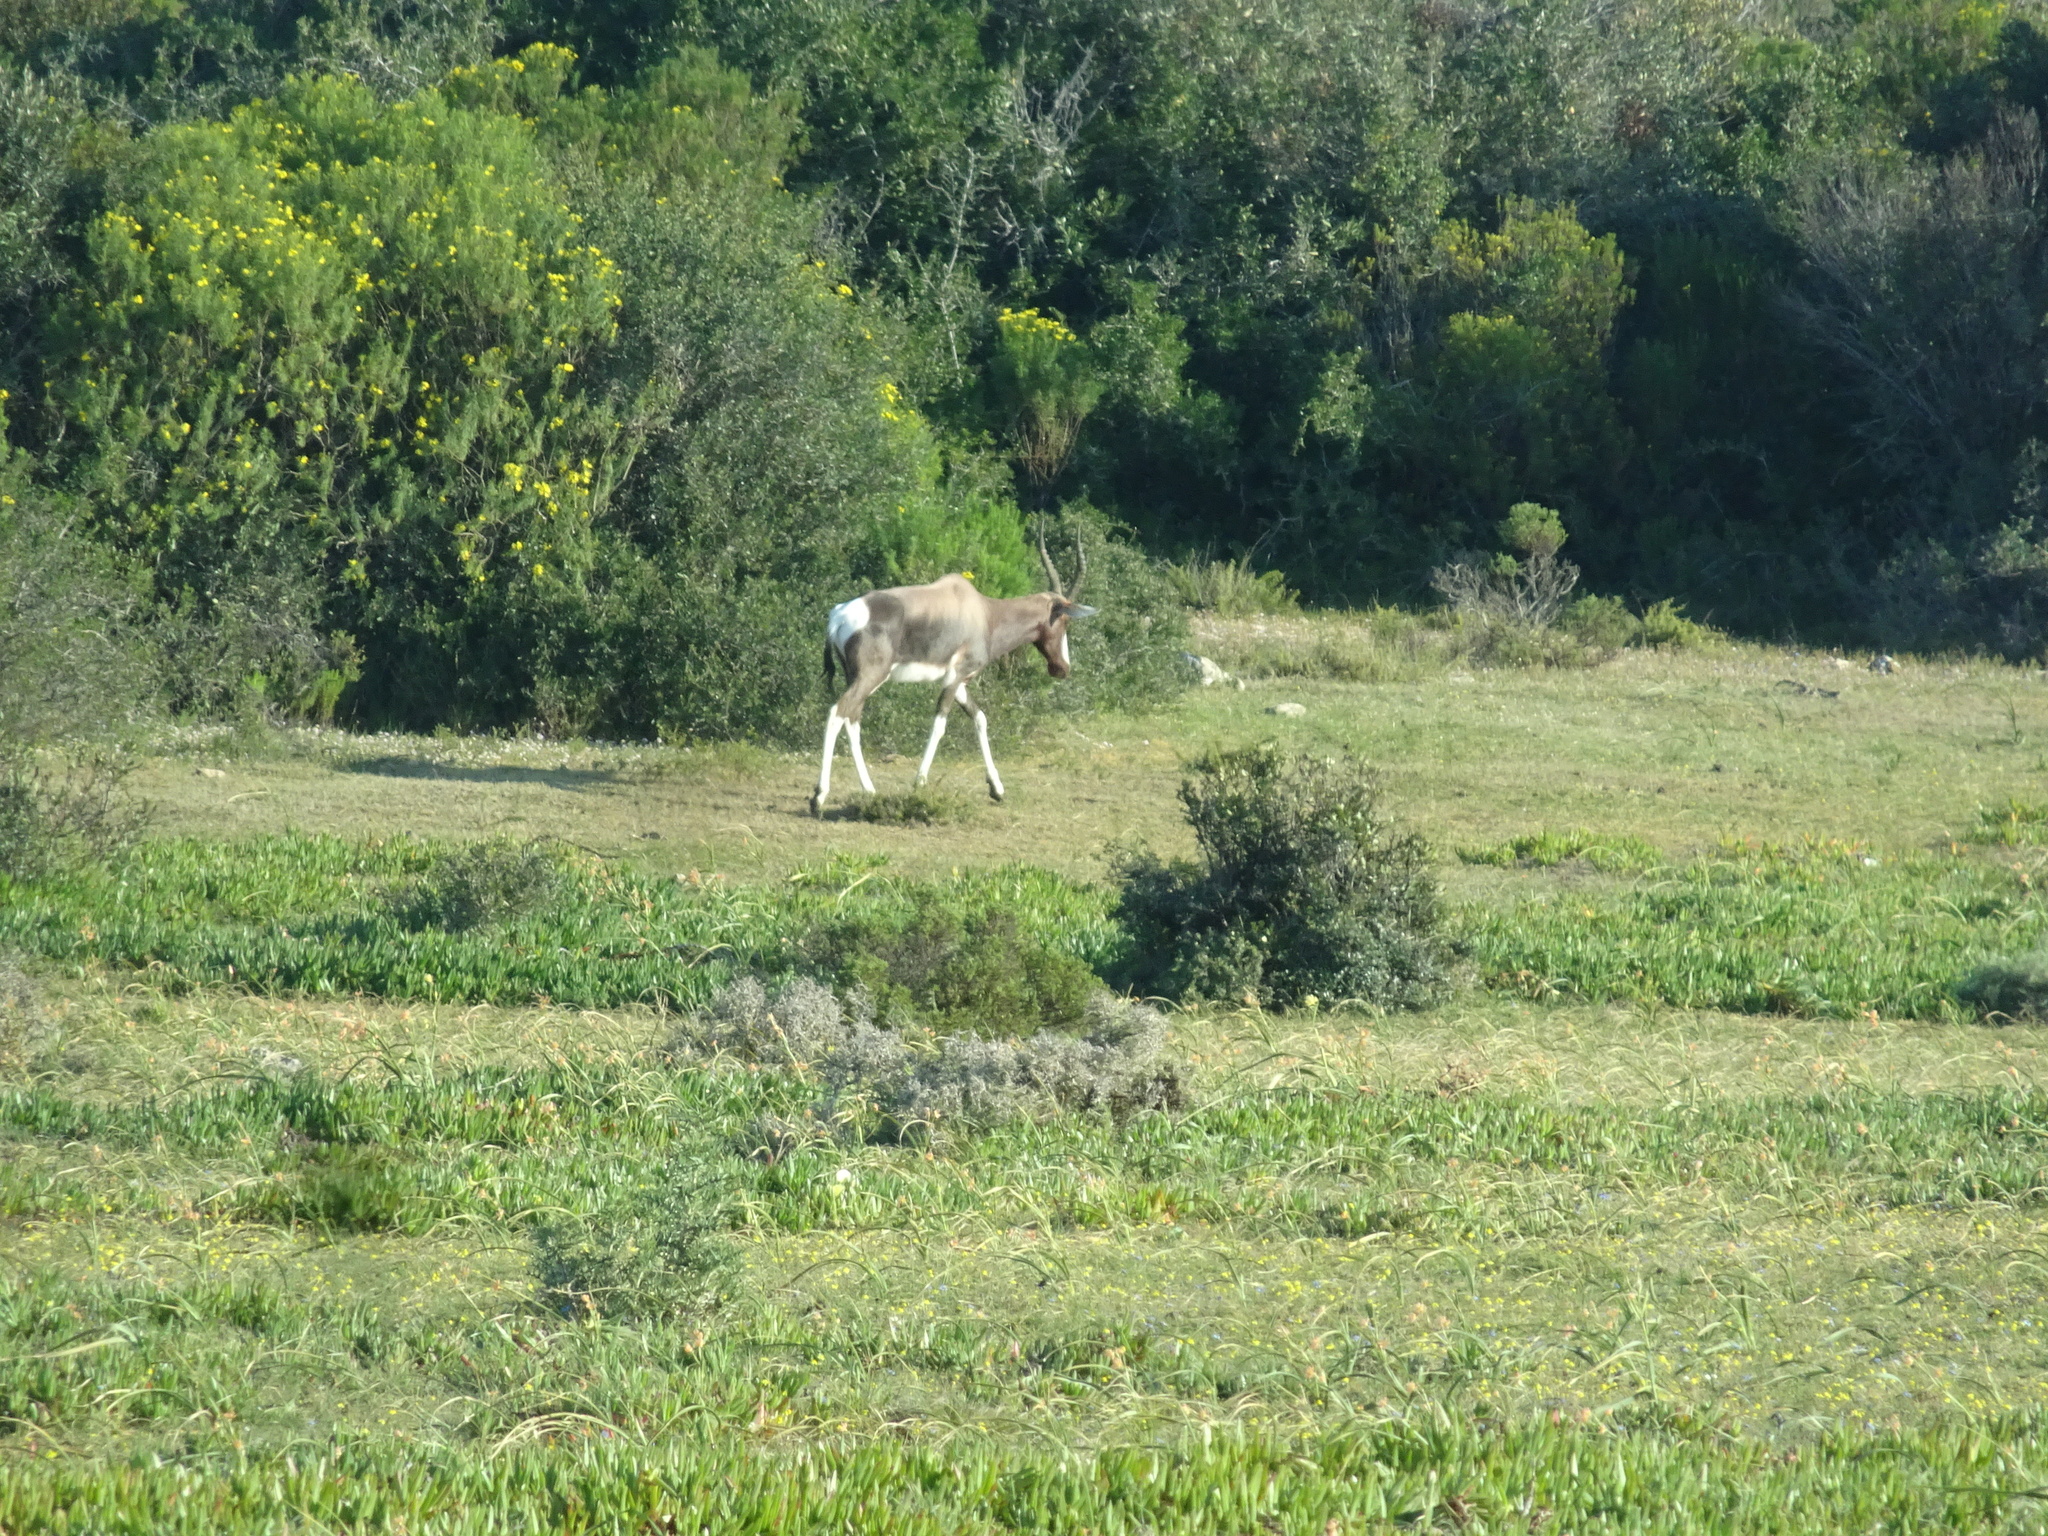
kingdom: Animalia
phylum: Chordata
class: Mammalia
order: Artiodactyla
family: Bovidae
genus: Damaliscus
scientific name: Damaliscus pygargus
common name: Bontebok
